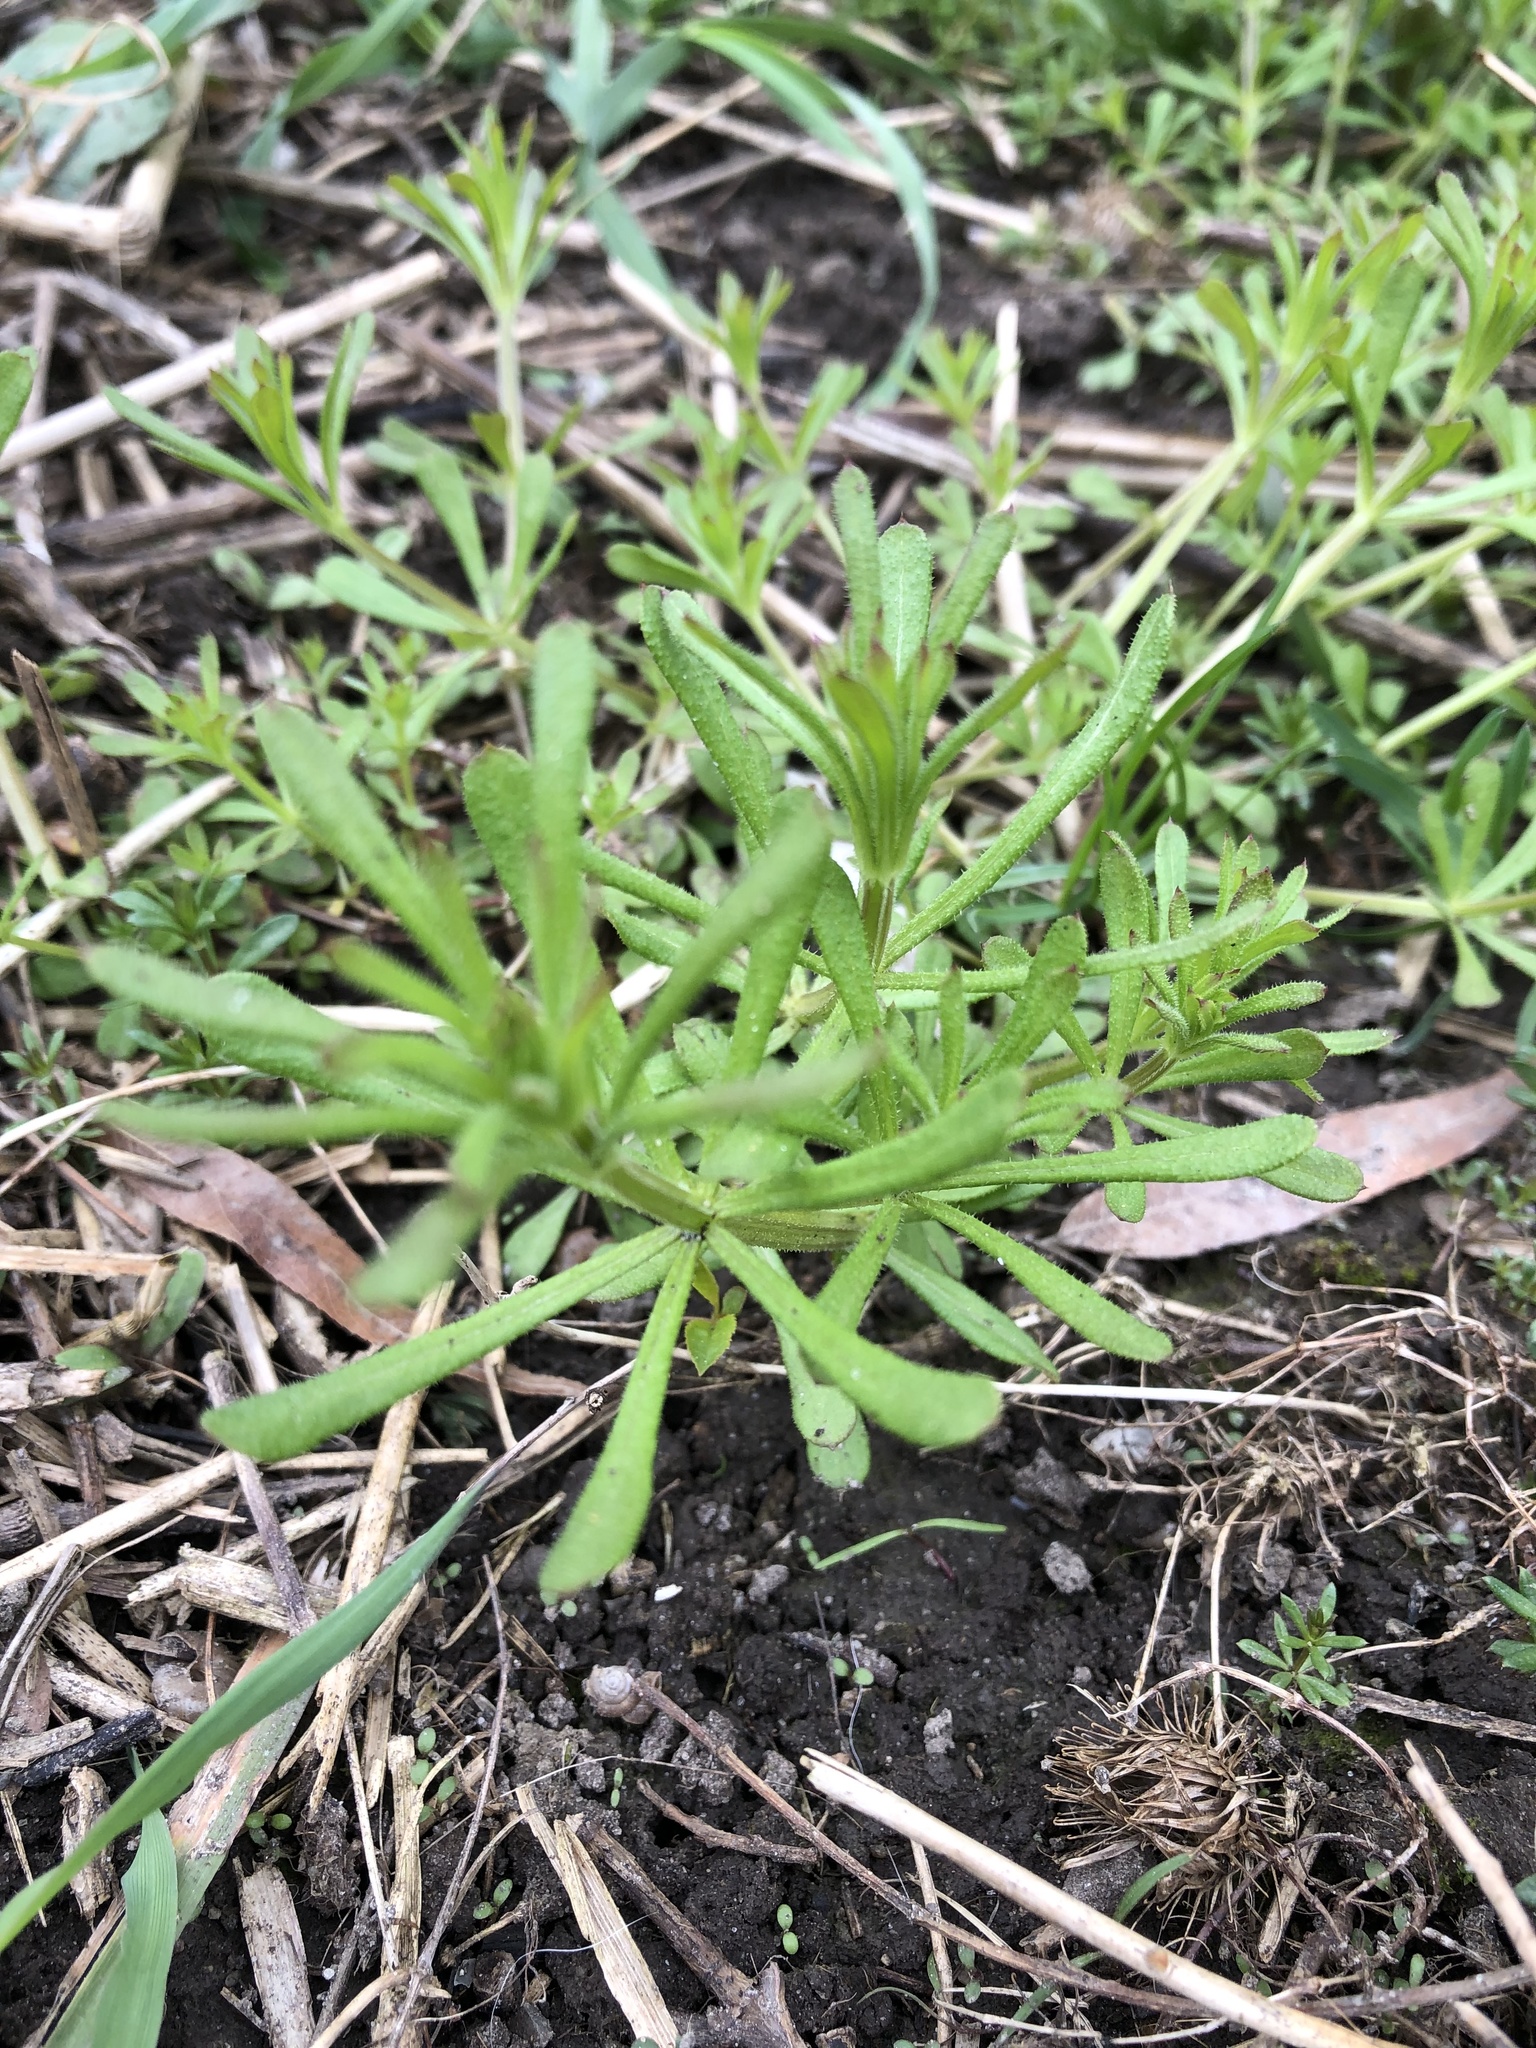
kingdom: Plantae
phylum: Tracheophyta
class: Magnoliopsida
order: Gentianales
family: Rubiaceae
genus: Galium
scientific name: Galium aparine
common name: Cleavers
